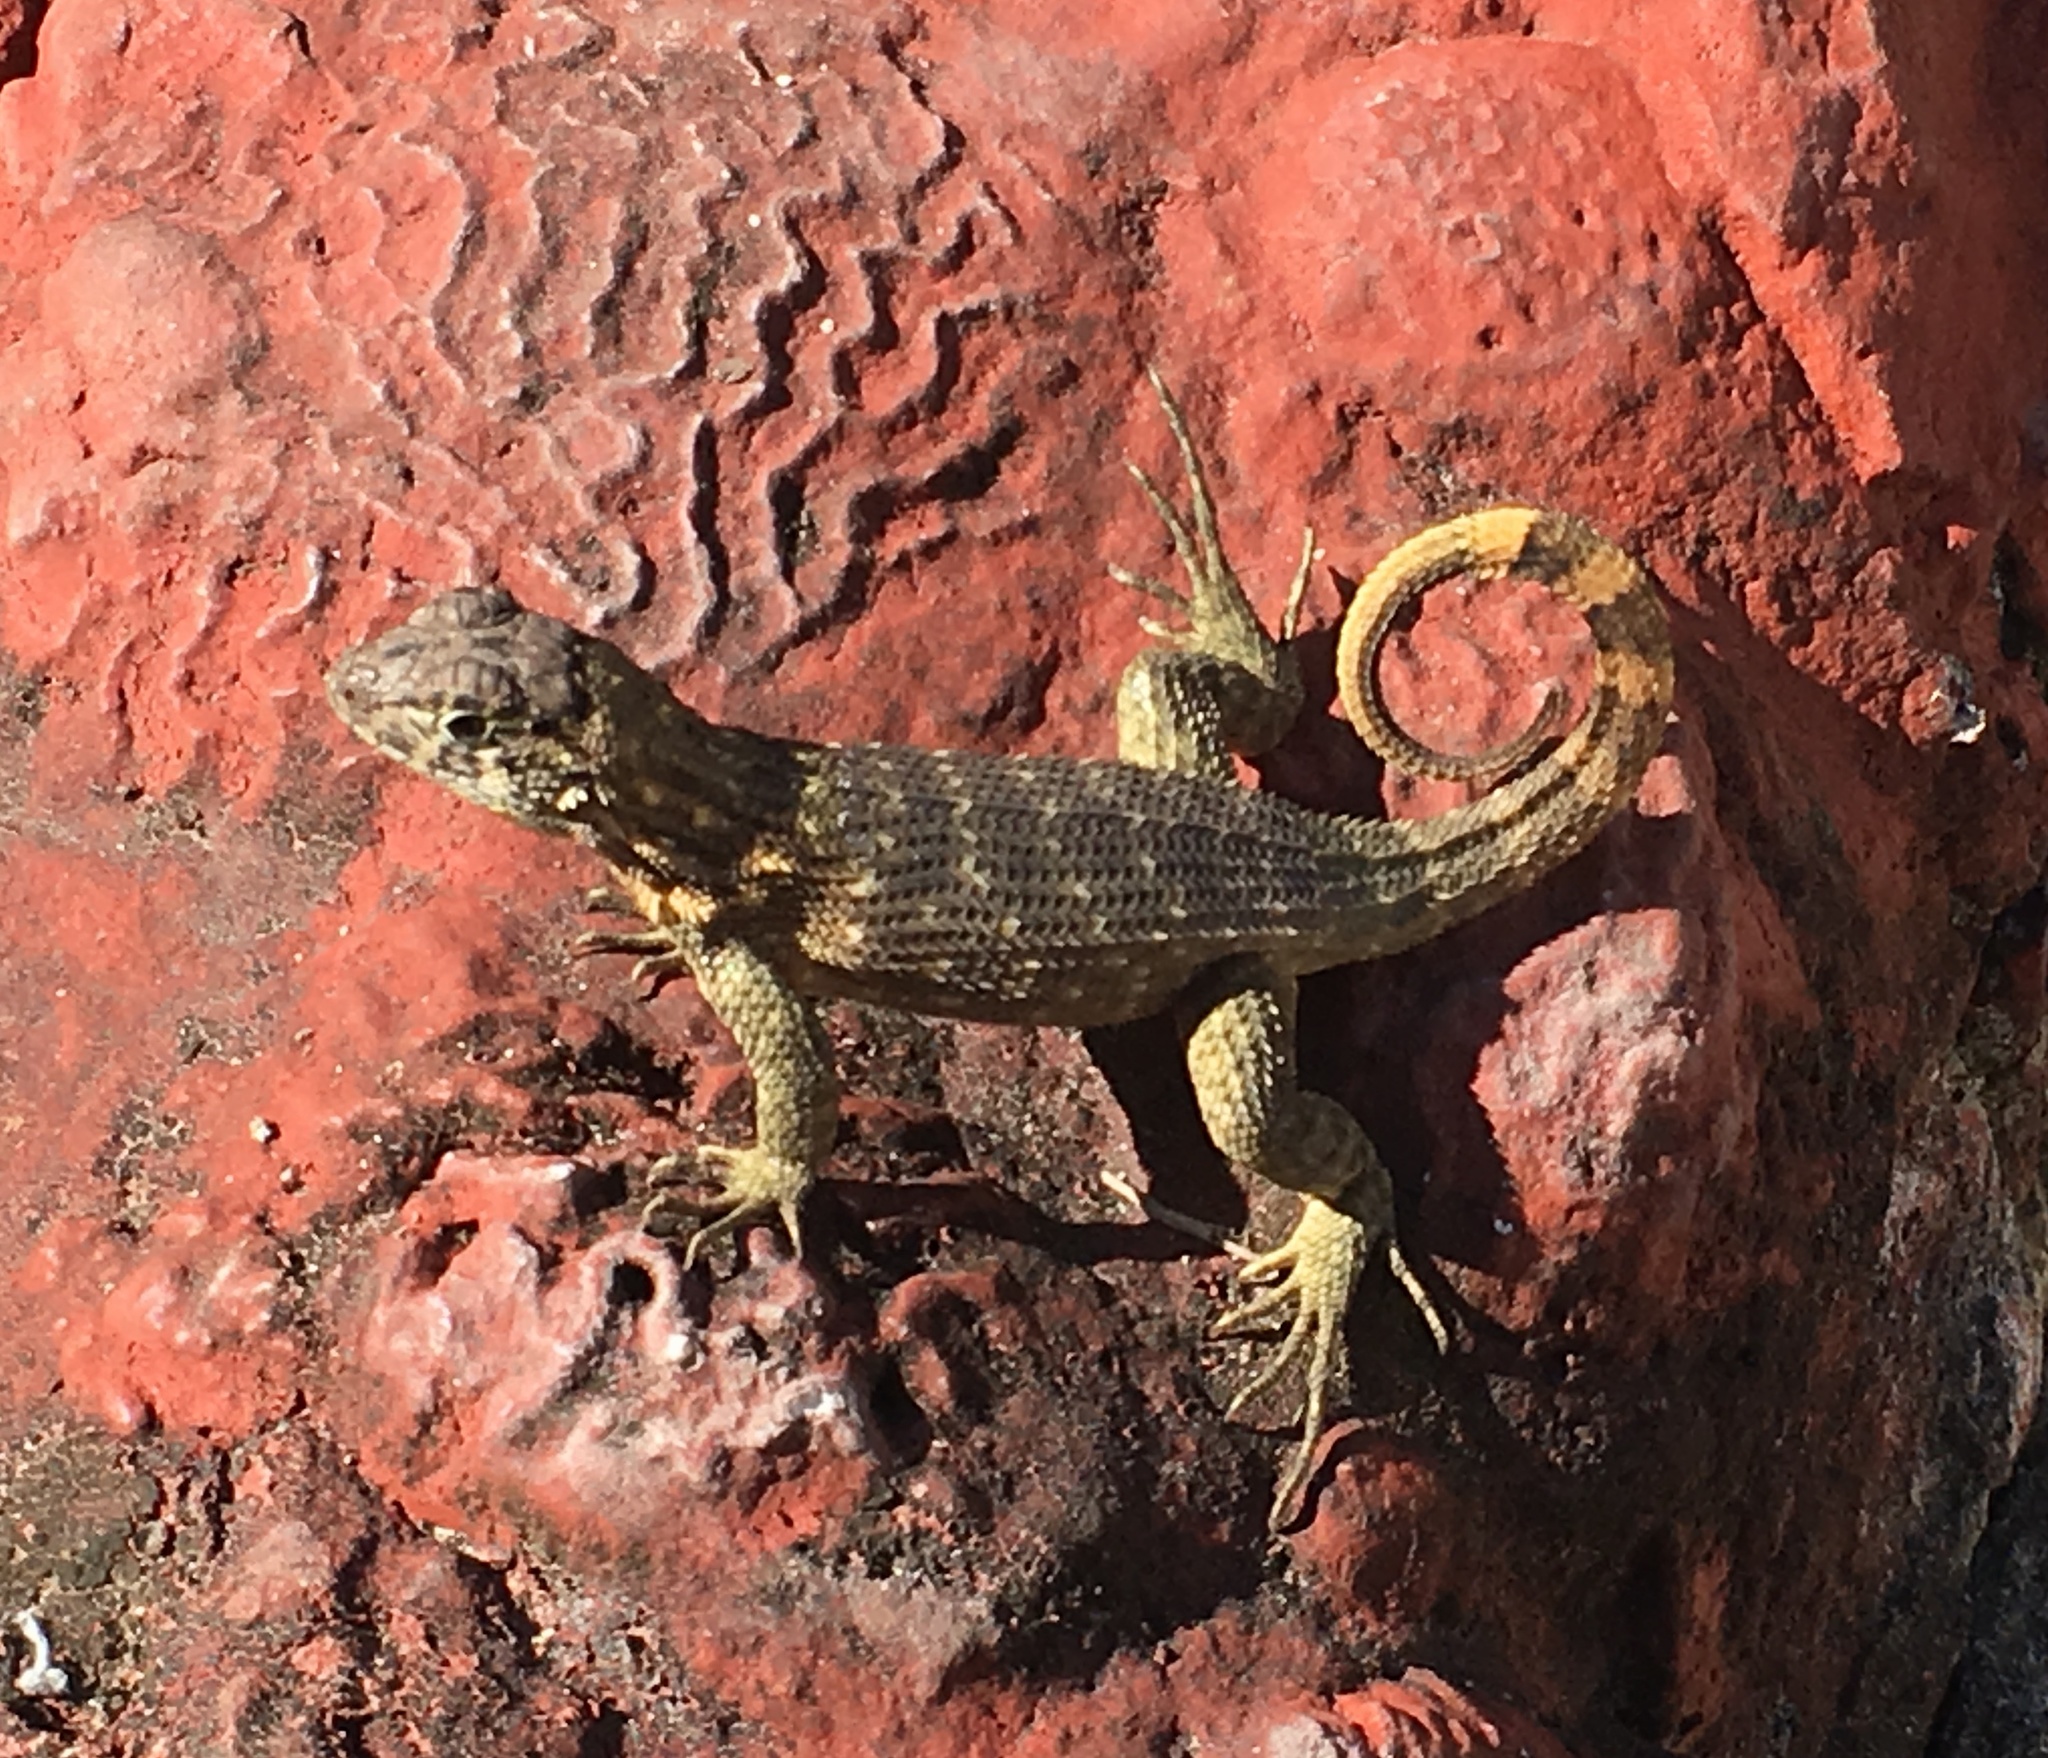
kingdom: Animalia
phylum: Chordata
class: Squamata
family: Leiocephalidae
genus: Leiocephalus
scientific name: Leiocephalus carinatus
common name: Northern curly-tailed lizard
